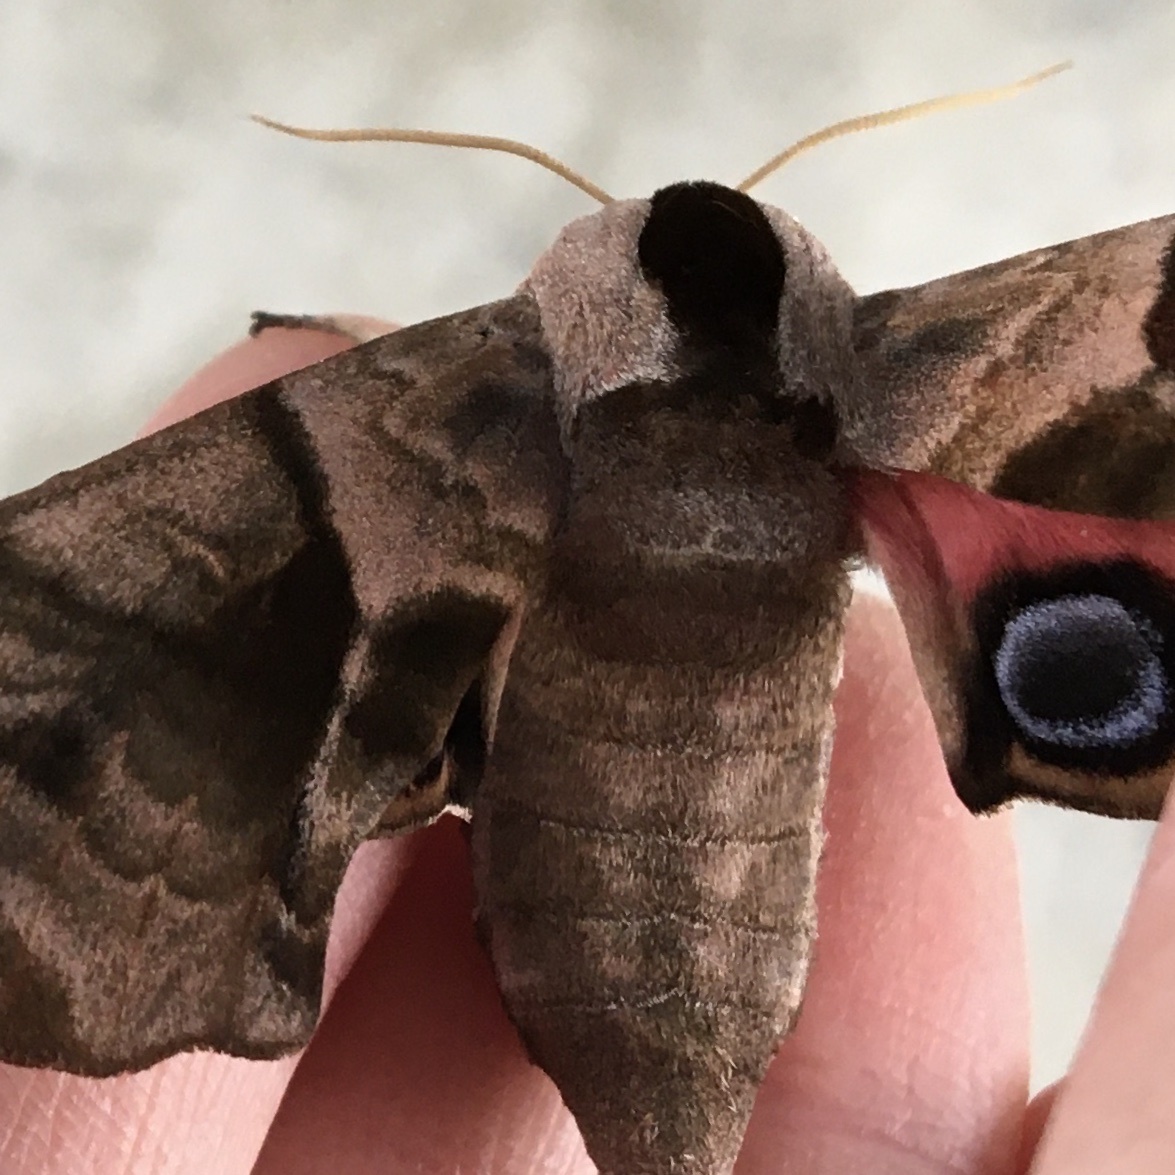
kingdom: Animalia
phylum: Arthropoda
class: Insecta
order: Lepidoptera
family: Sphingidae
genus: Smerinthus
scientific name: Smerinthus ocellata
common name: Eyed hawk-moth
